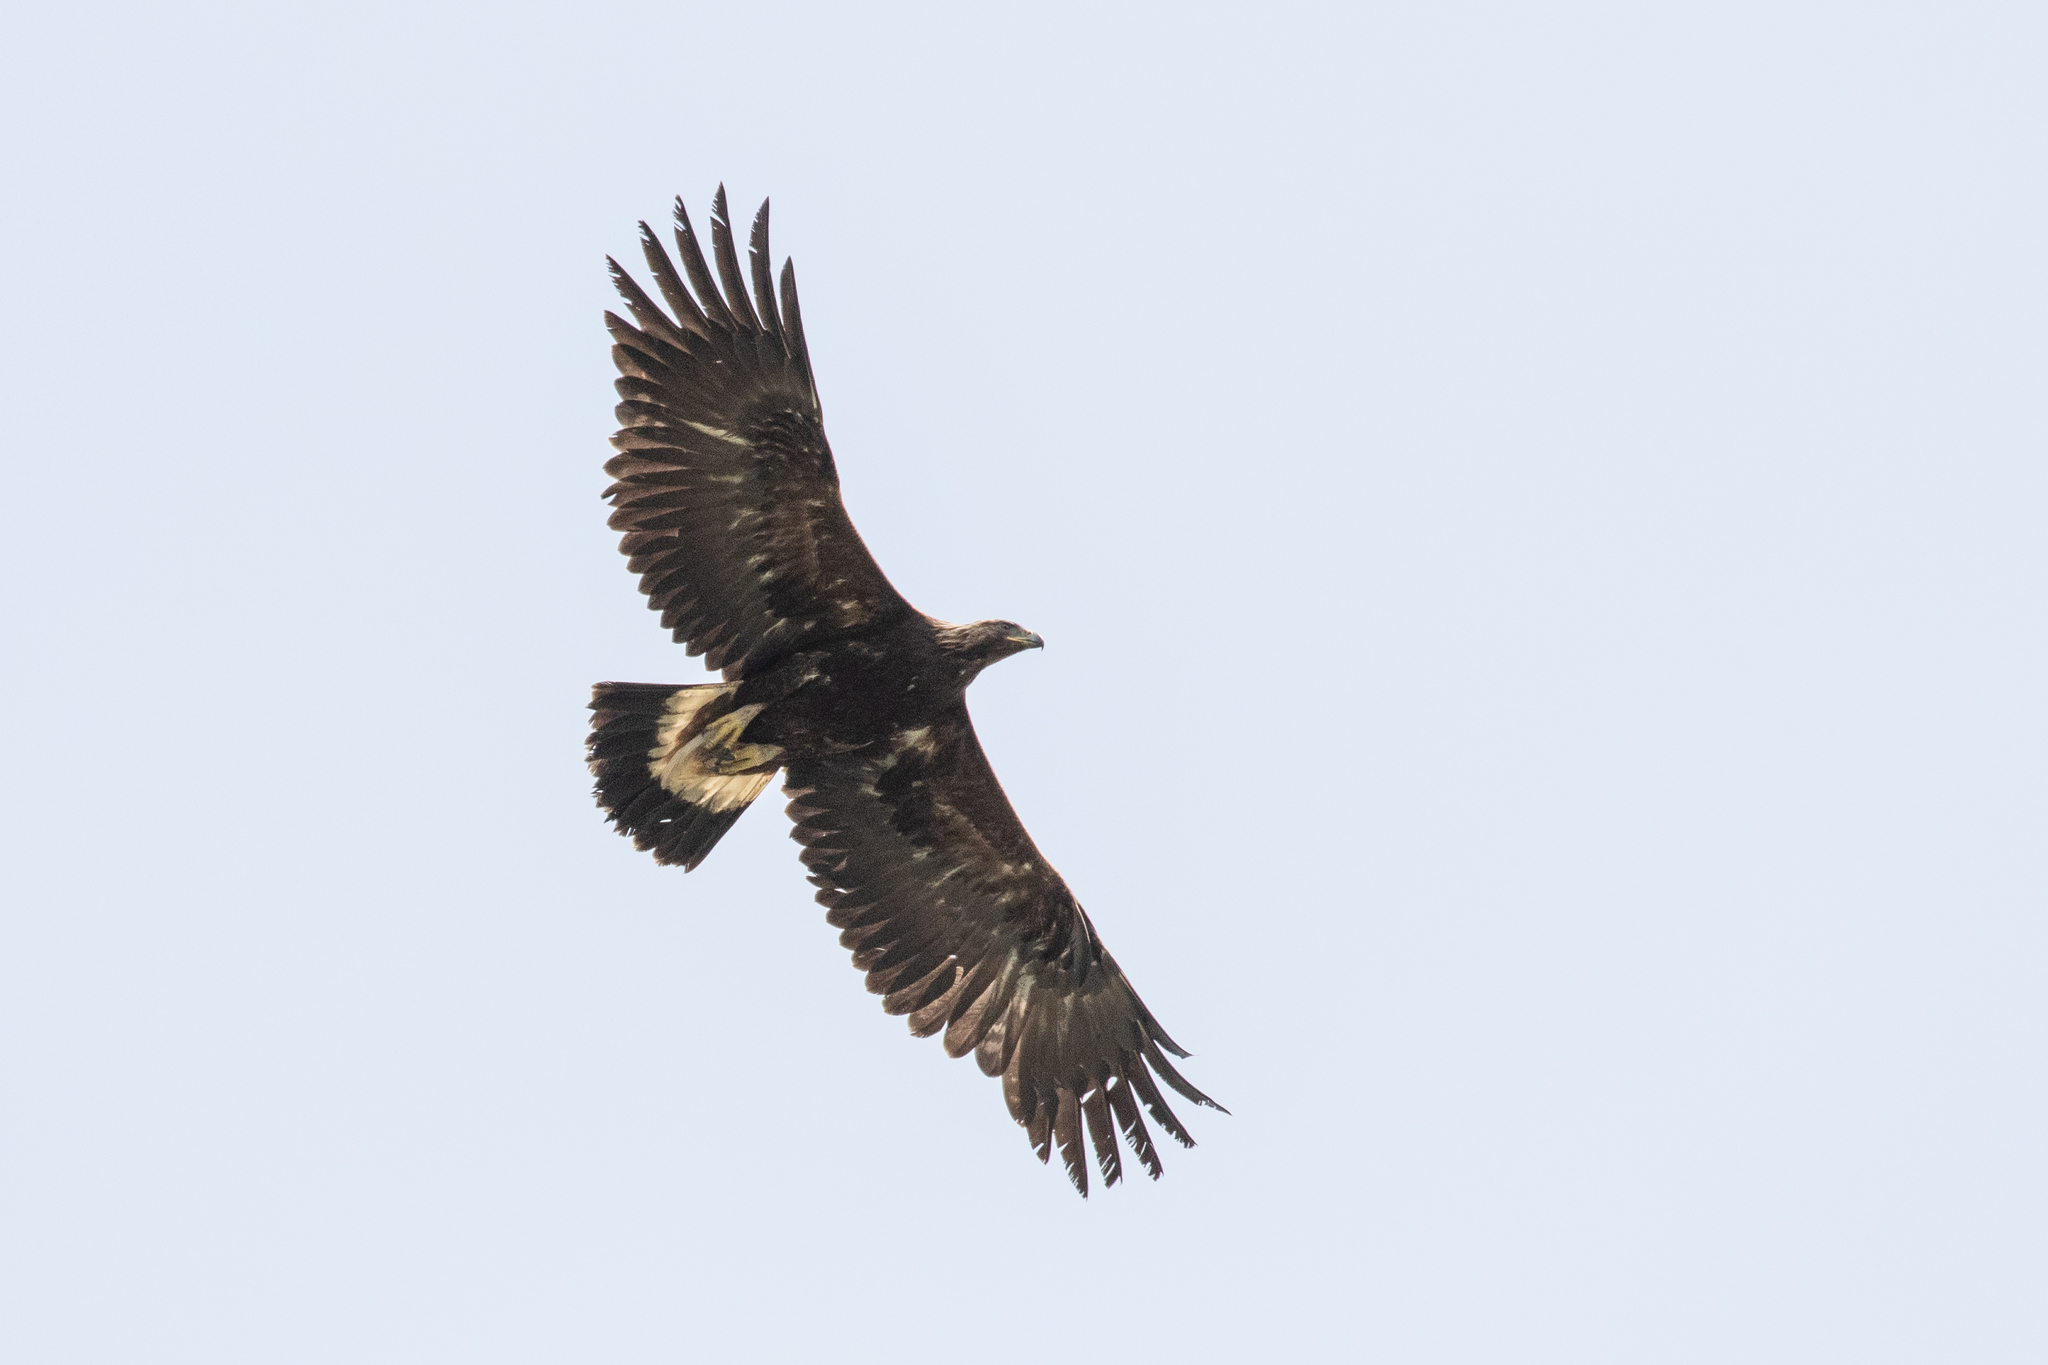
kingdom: Animalia
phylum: Chordata
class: Aves
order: Accipitriformes
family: Accipitridae
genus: Aquila
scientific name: Aquila chrysaetos
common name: Golden eagle
